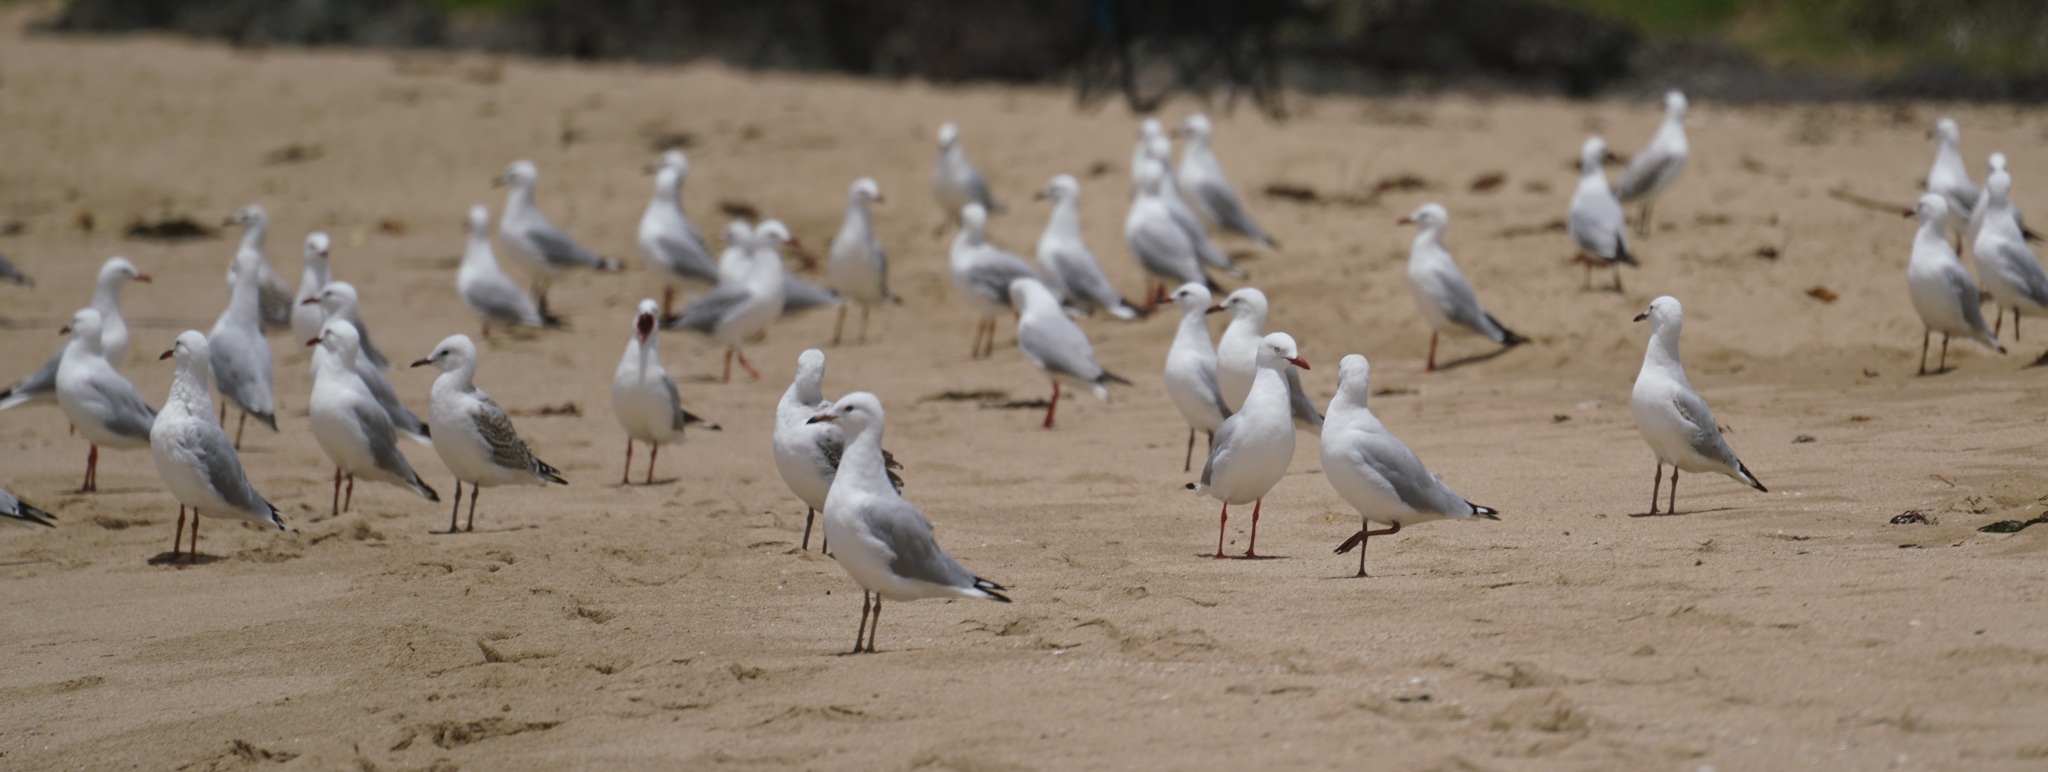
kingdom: Animalia
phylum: Chordata
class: Aves
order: Charadriiformes
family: Laridae
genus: Chroicocephalus
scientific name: Chroicocephalus novaehollandiae
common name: Silver gull
